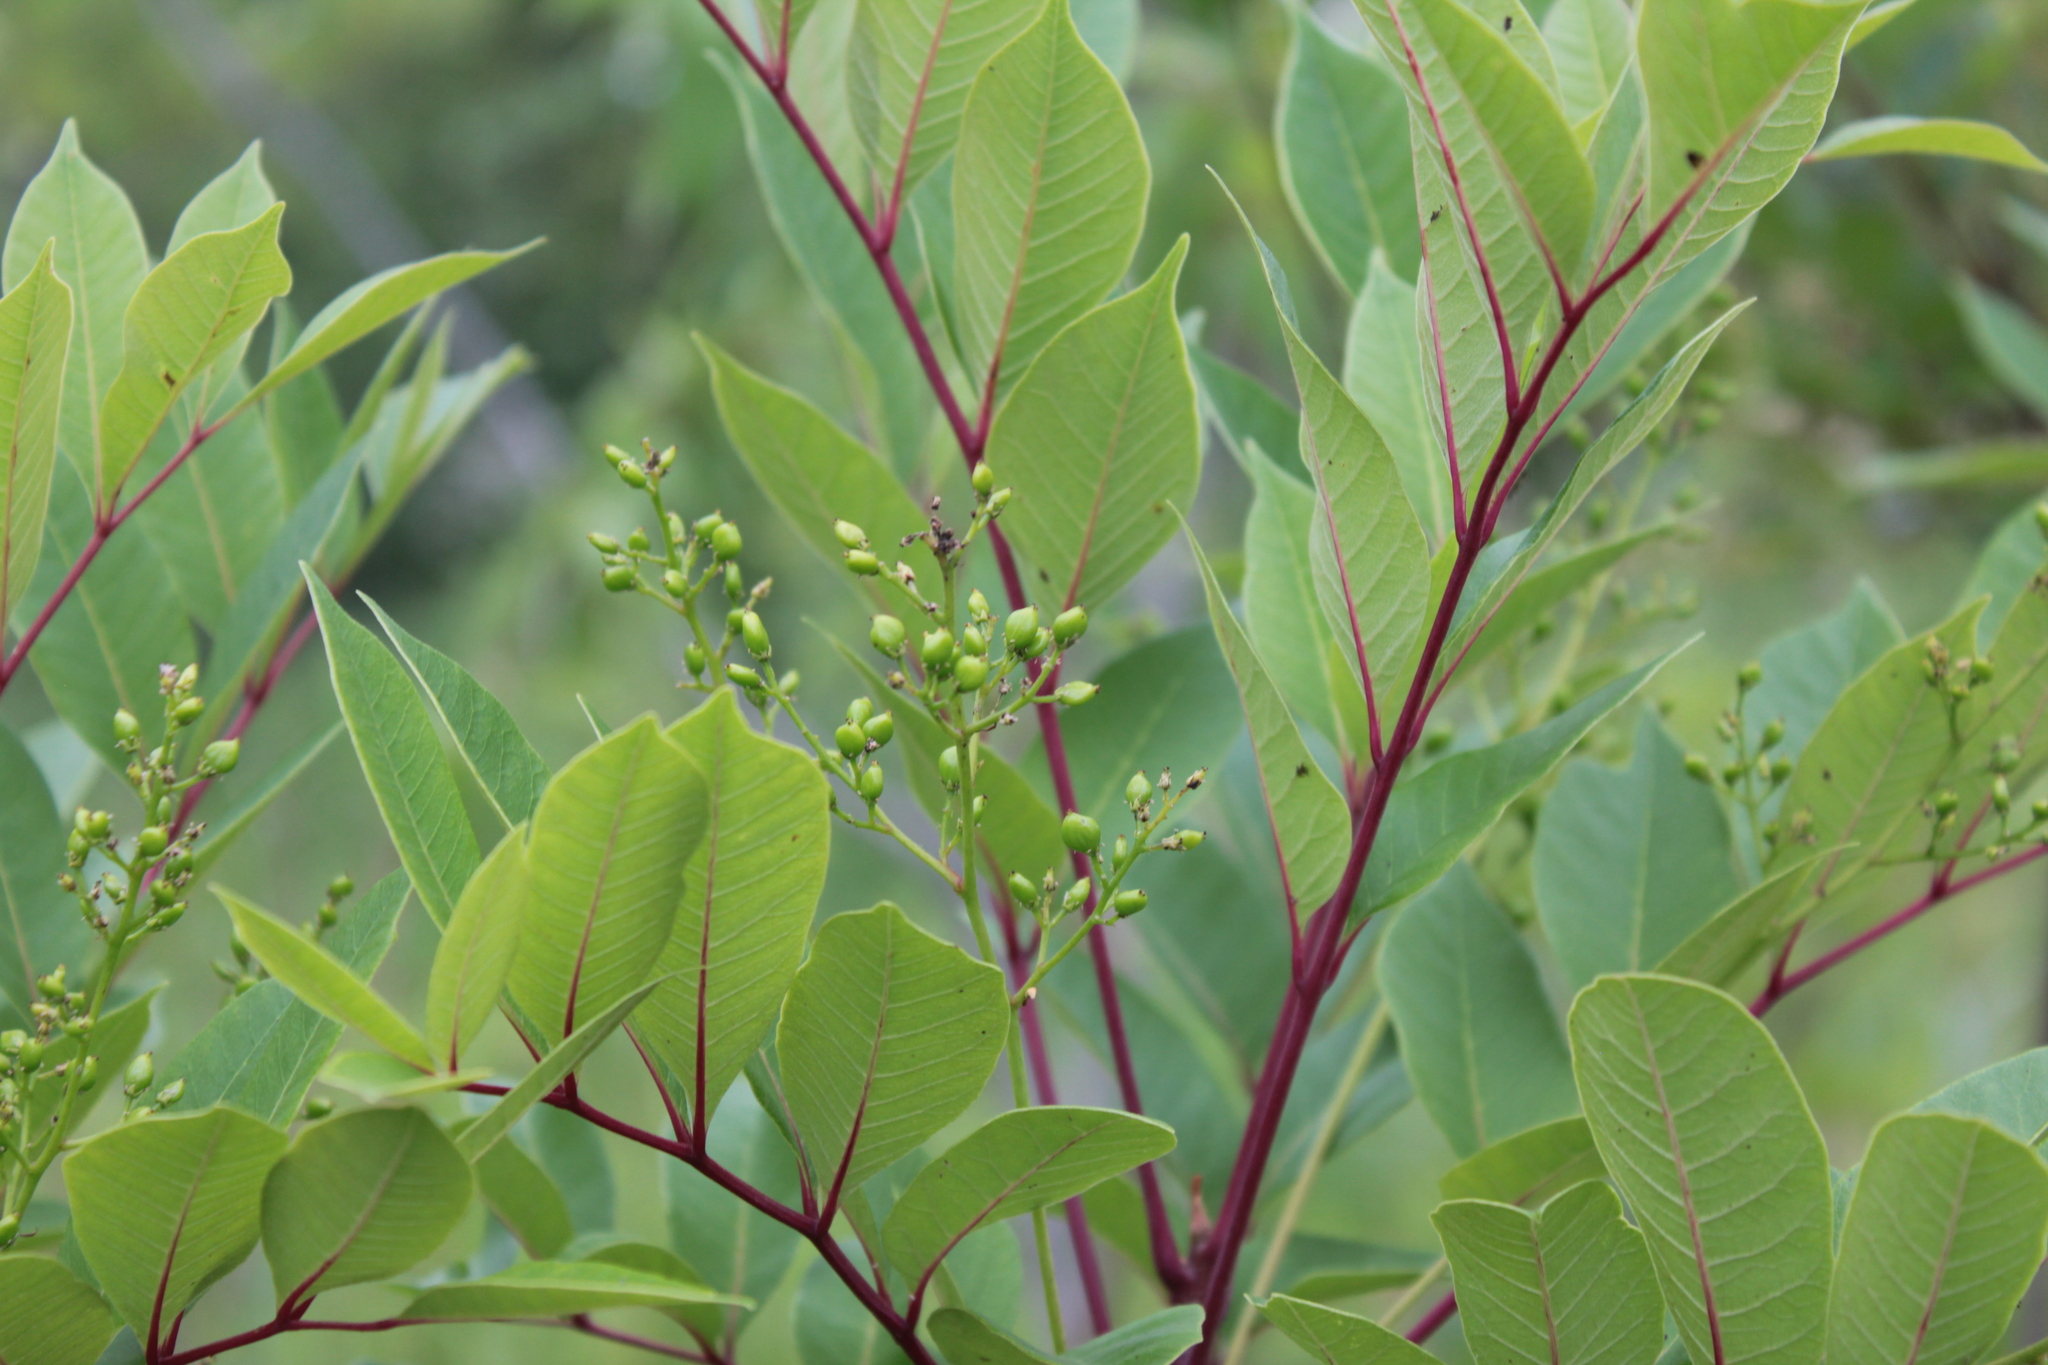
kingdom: Plantae
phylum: Tracheophyta
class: Magnoliopsida
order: Sapindales
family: Anacardiaceae
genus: Toxicodendron
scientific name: Toxicodendron vernix
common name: Poison sumac
